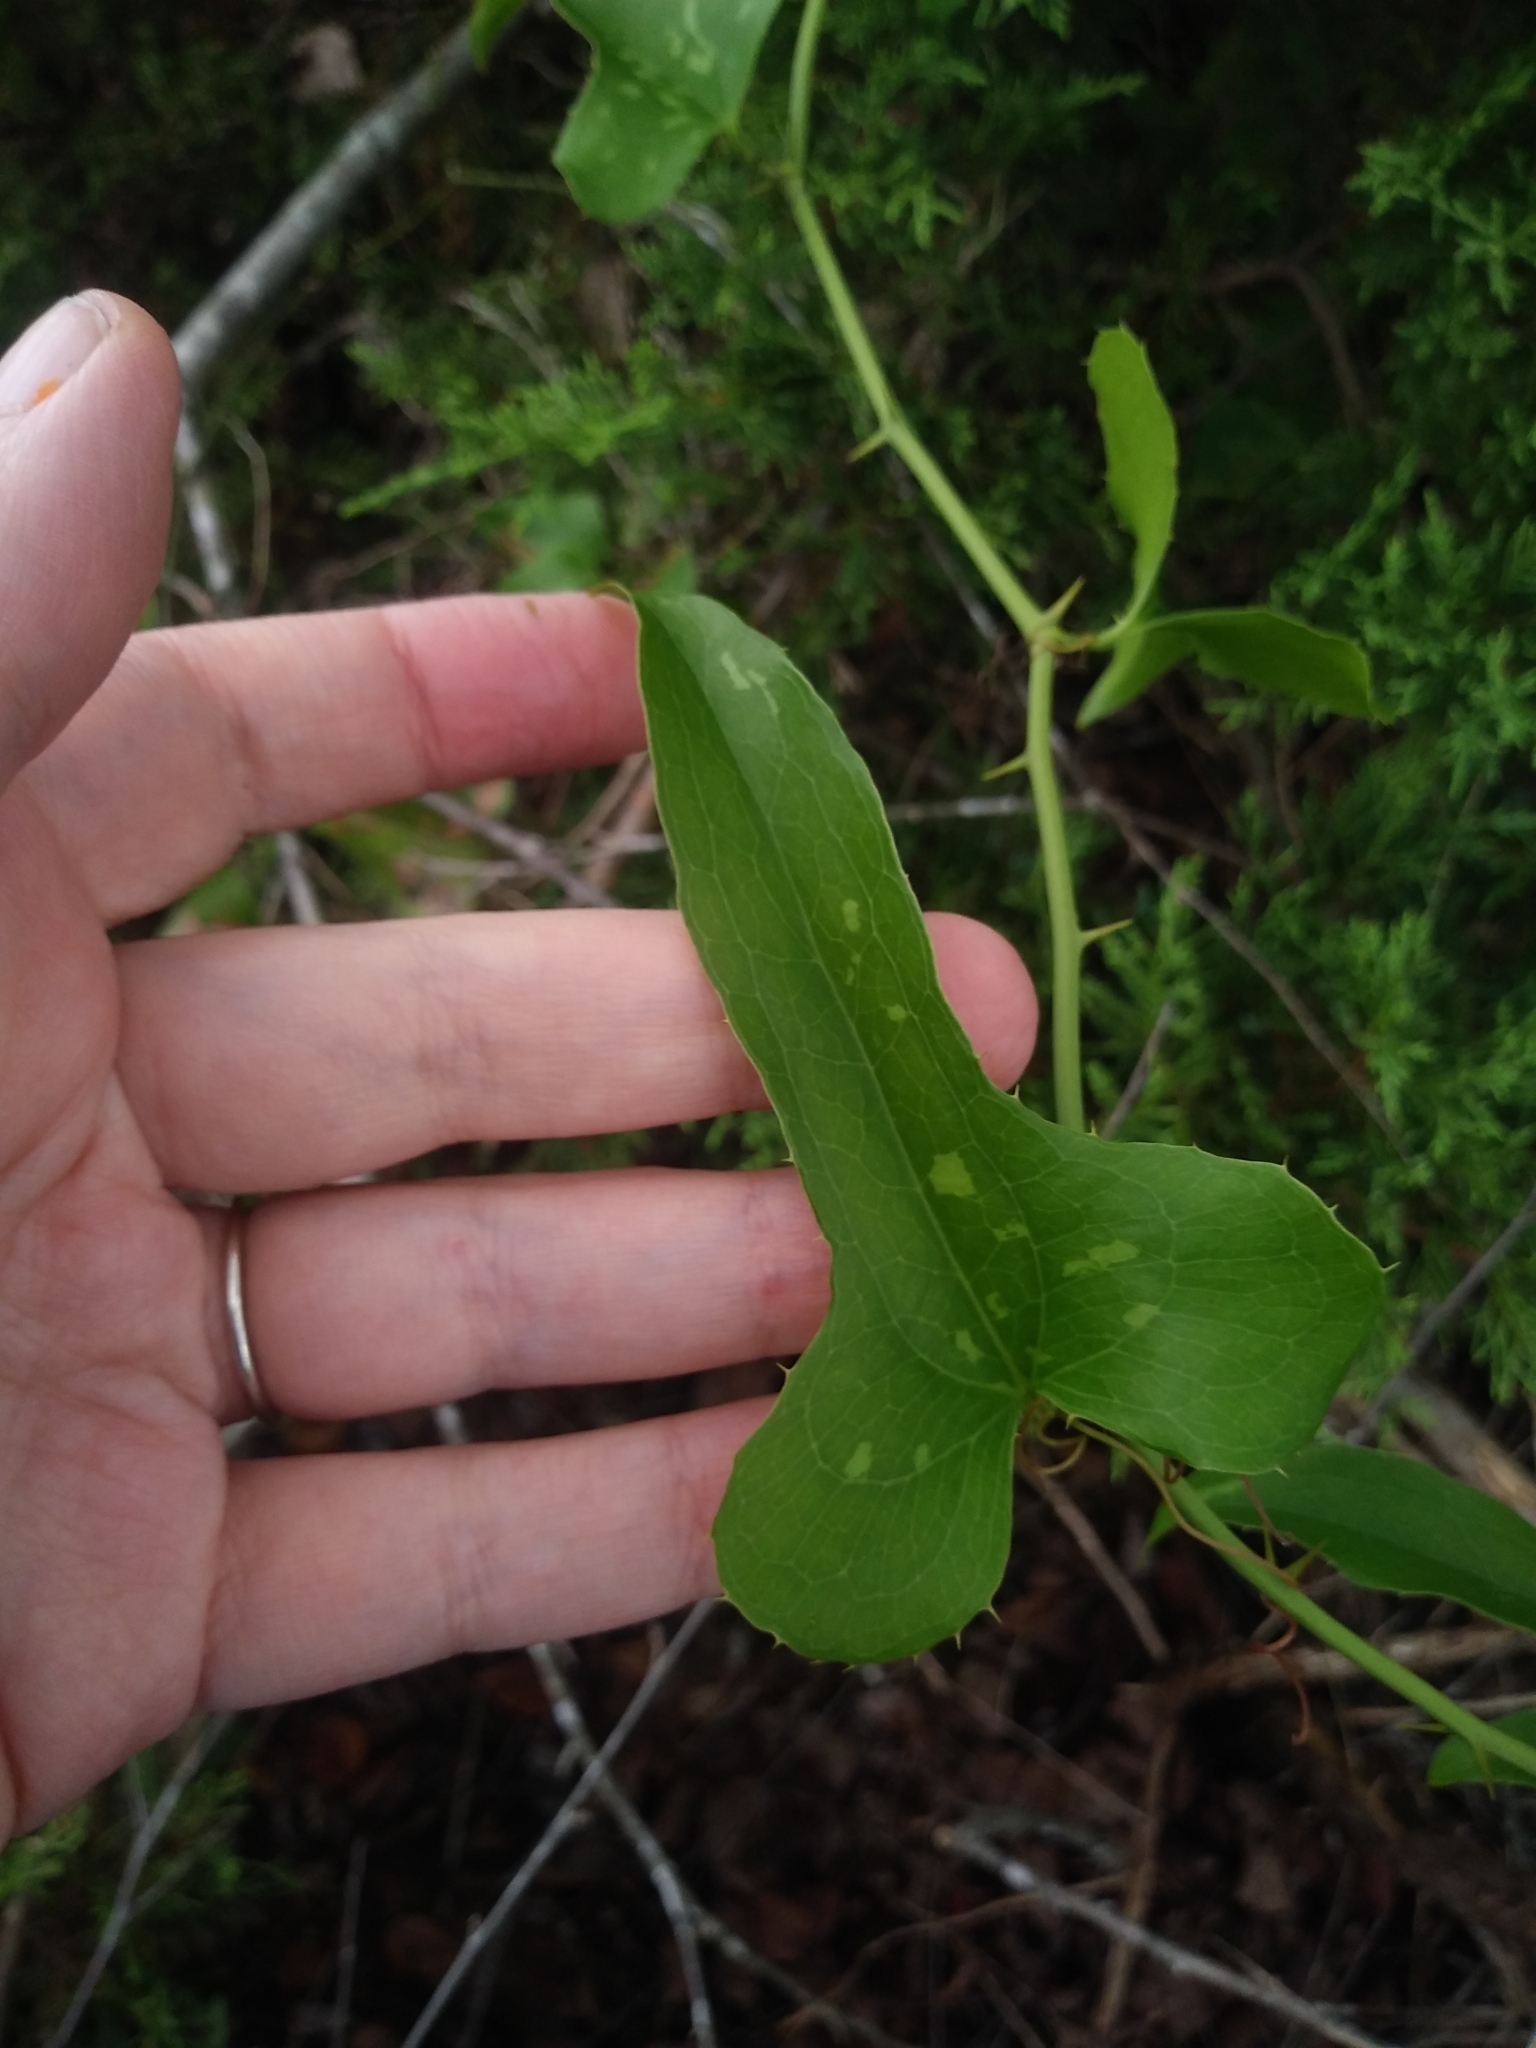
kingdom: Plantae
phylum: Tracheophyta
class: Liliopsida
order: Liliales
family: Smilacaceae
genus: Smilax
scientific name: Smilax bona-nox
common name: Catbrier
